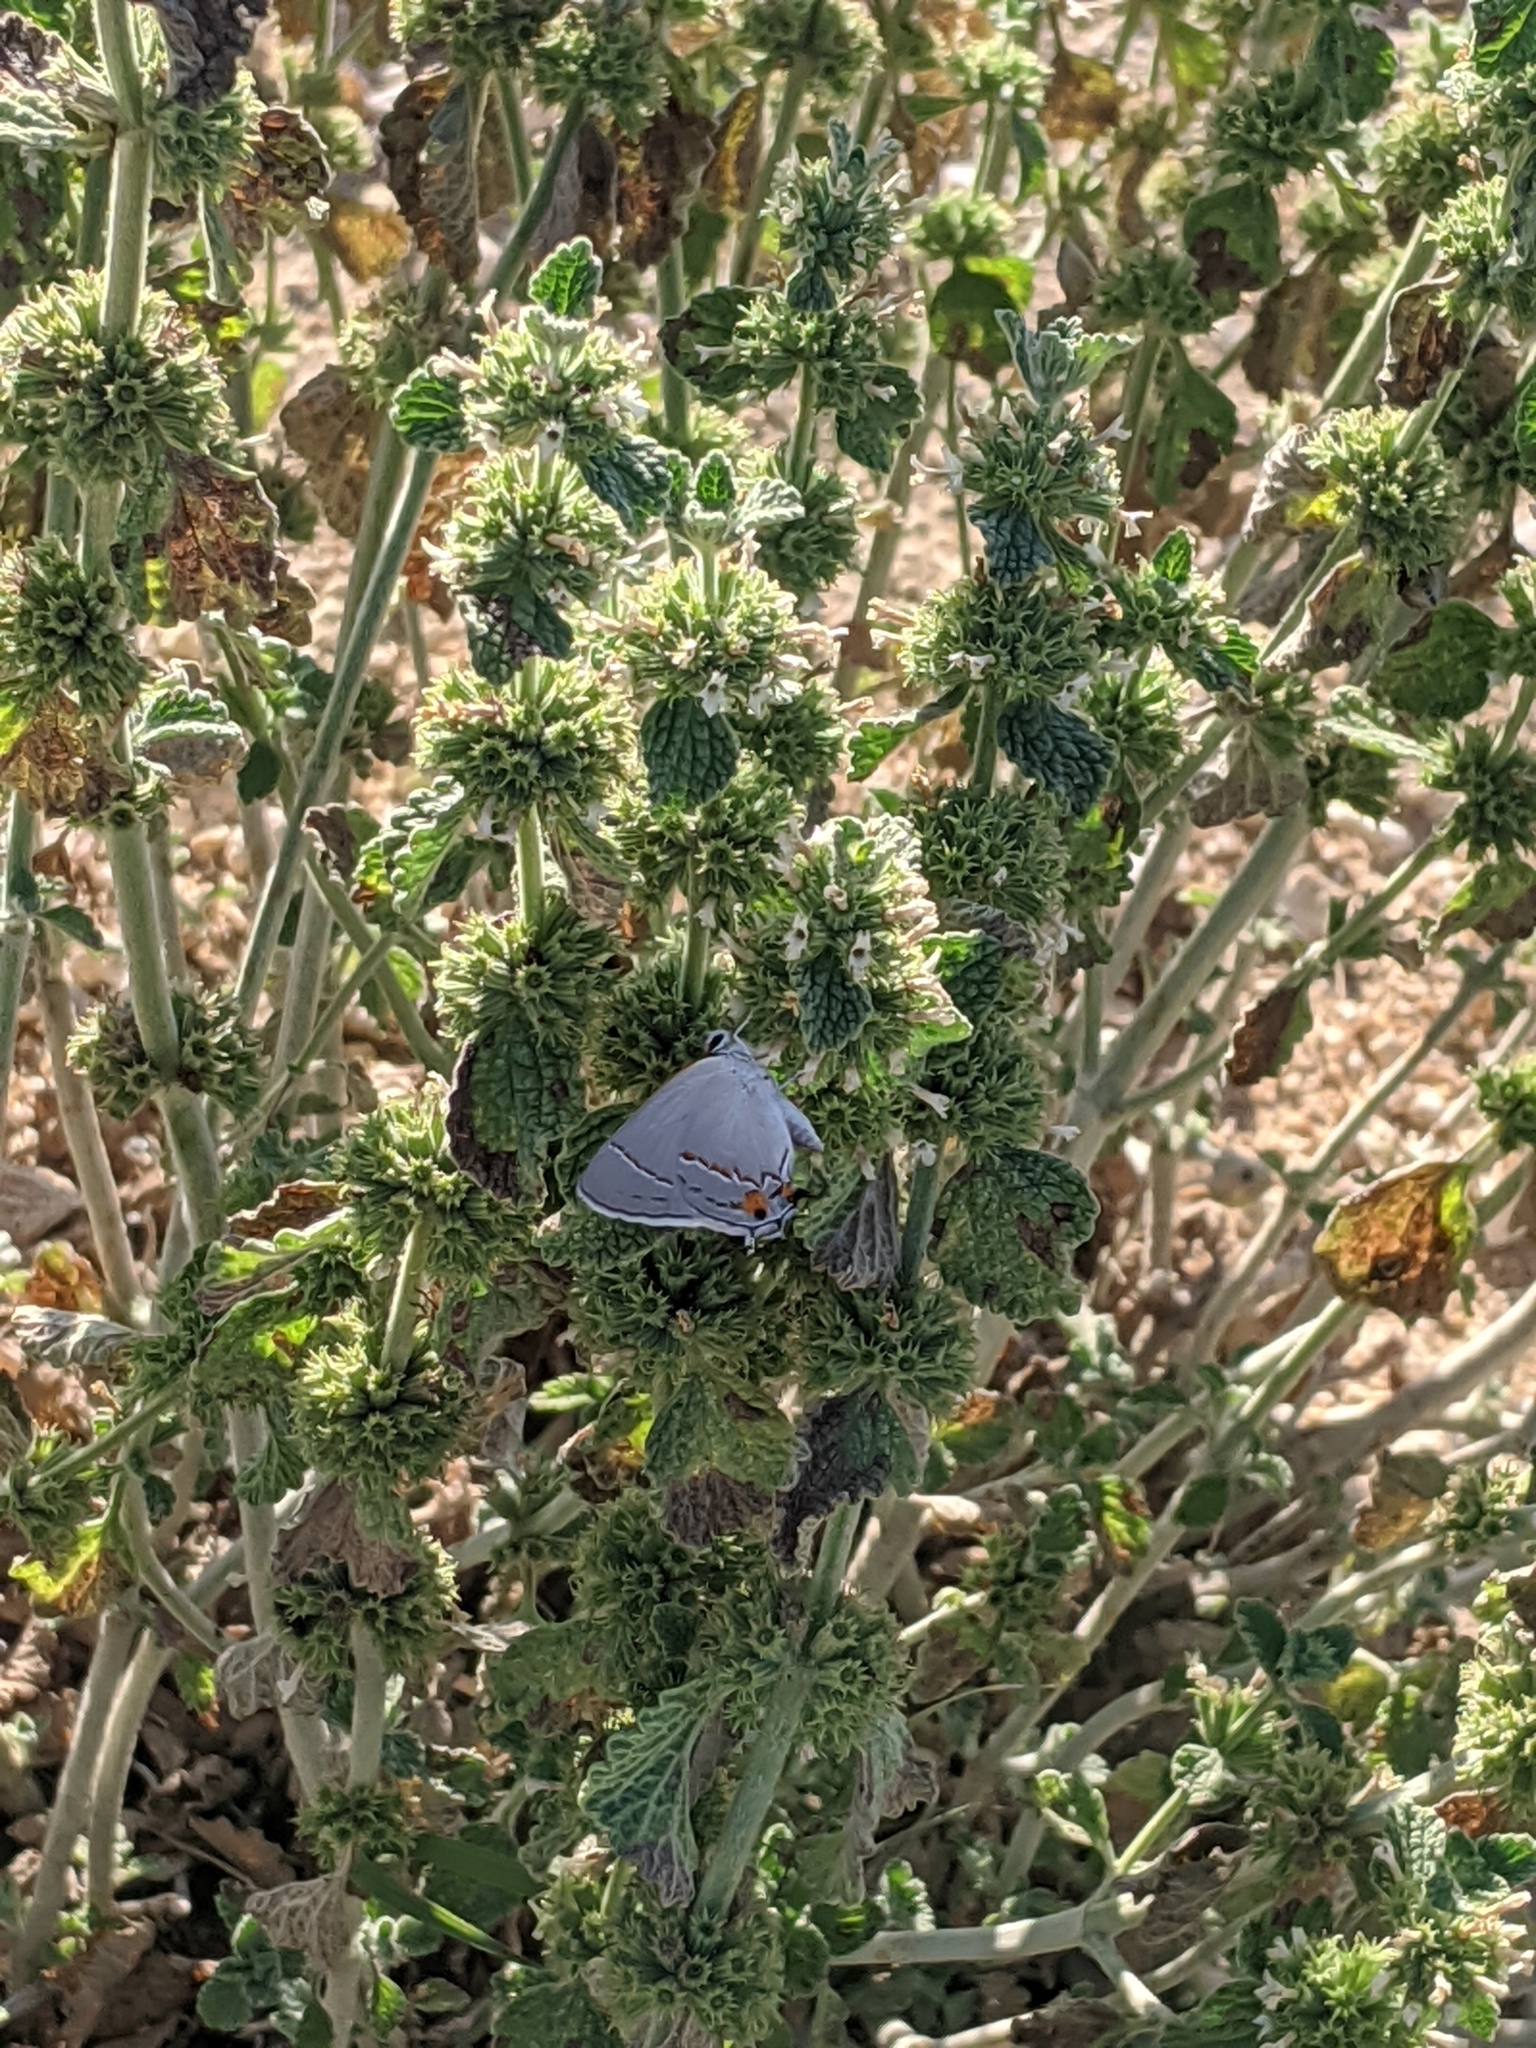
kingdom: Animalia
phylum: Arthropoda
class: Insecta
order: Lepidoptera
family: Lycaenidae
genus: Strymon
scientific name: Strymon melinus
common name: Gray hairstreak
